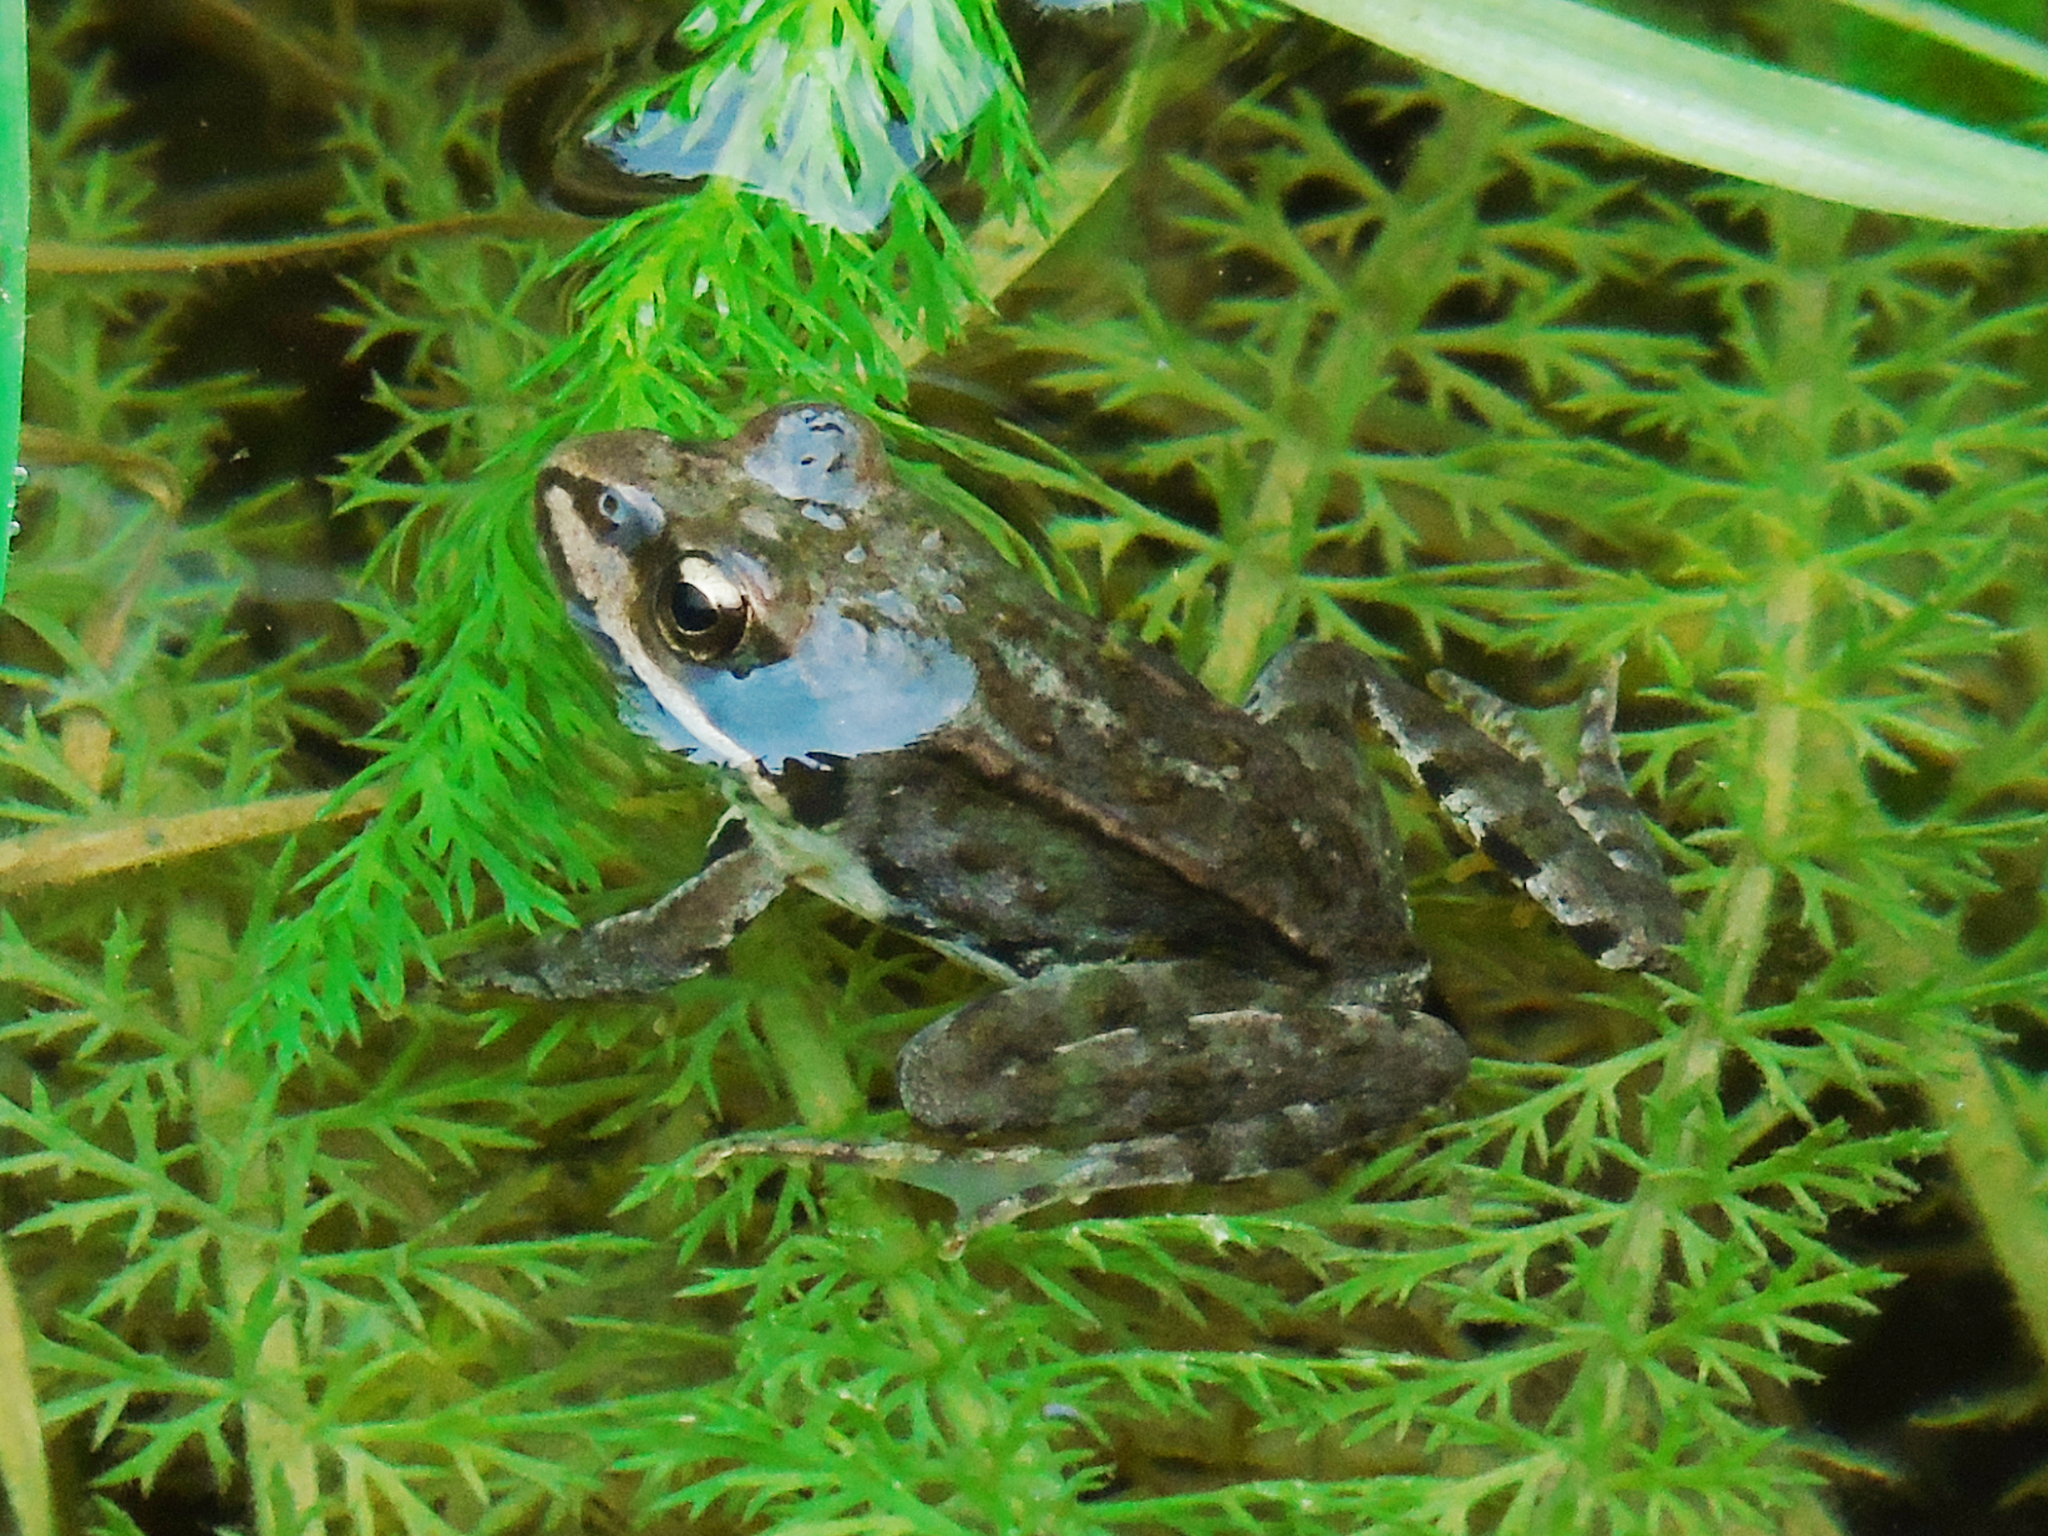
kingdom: Animalia
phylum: Chordata
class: Amphibia
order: Anura
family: Ranidae
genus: Rana
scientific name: Rana macrocnemis
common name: Banded frog
